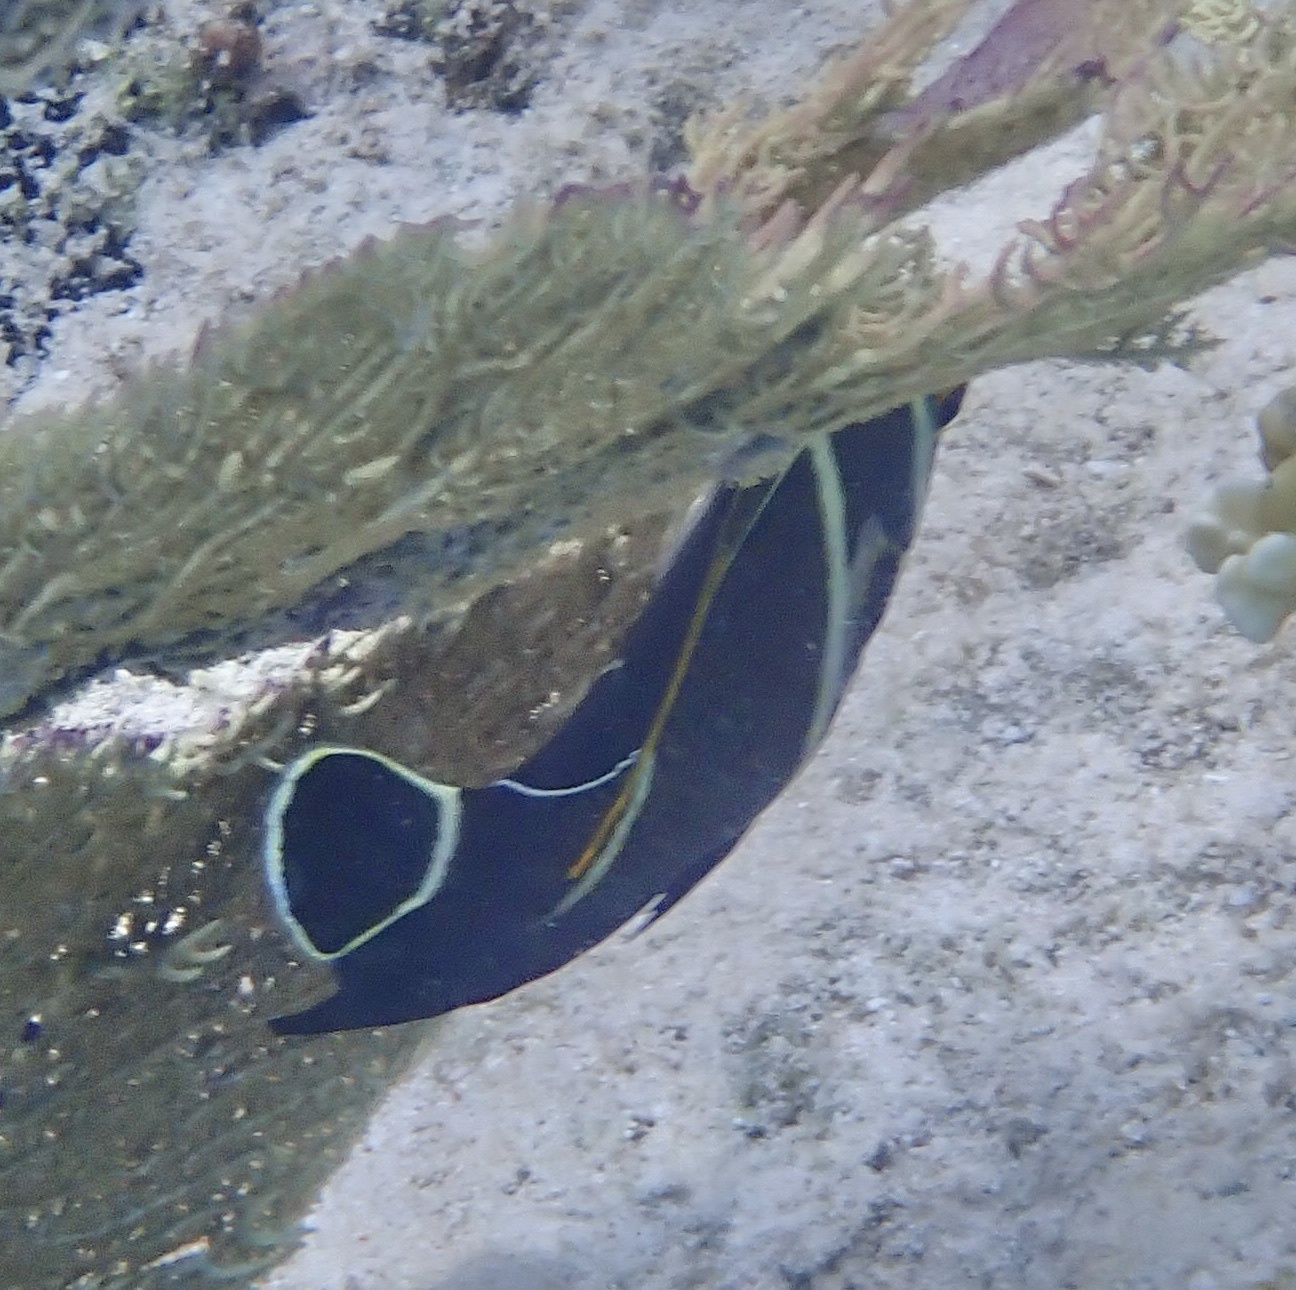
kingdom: Animalia
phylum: Chordata
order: Perciformes
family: Pomacanthidae
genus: Pomacanthus
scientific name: Pomacanthus paru
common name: French angelfish
